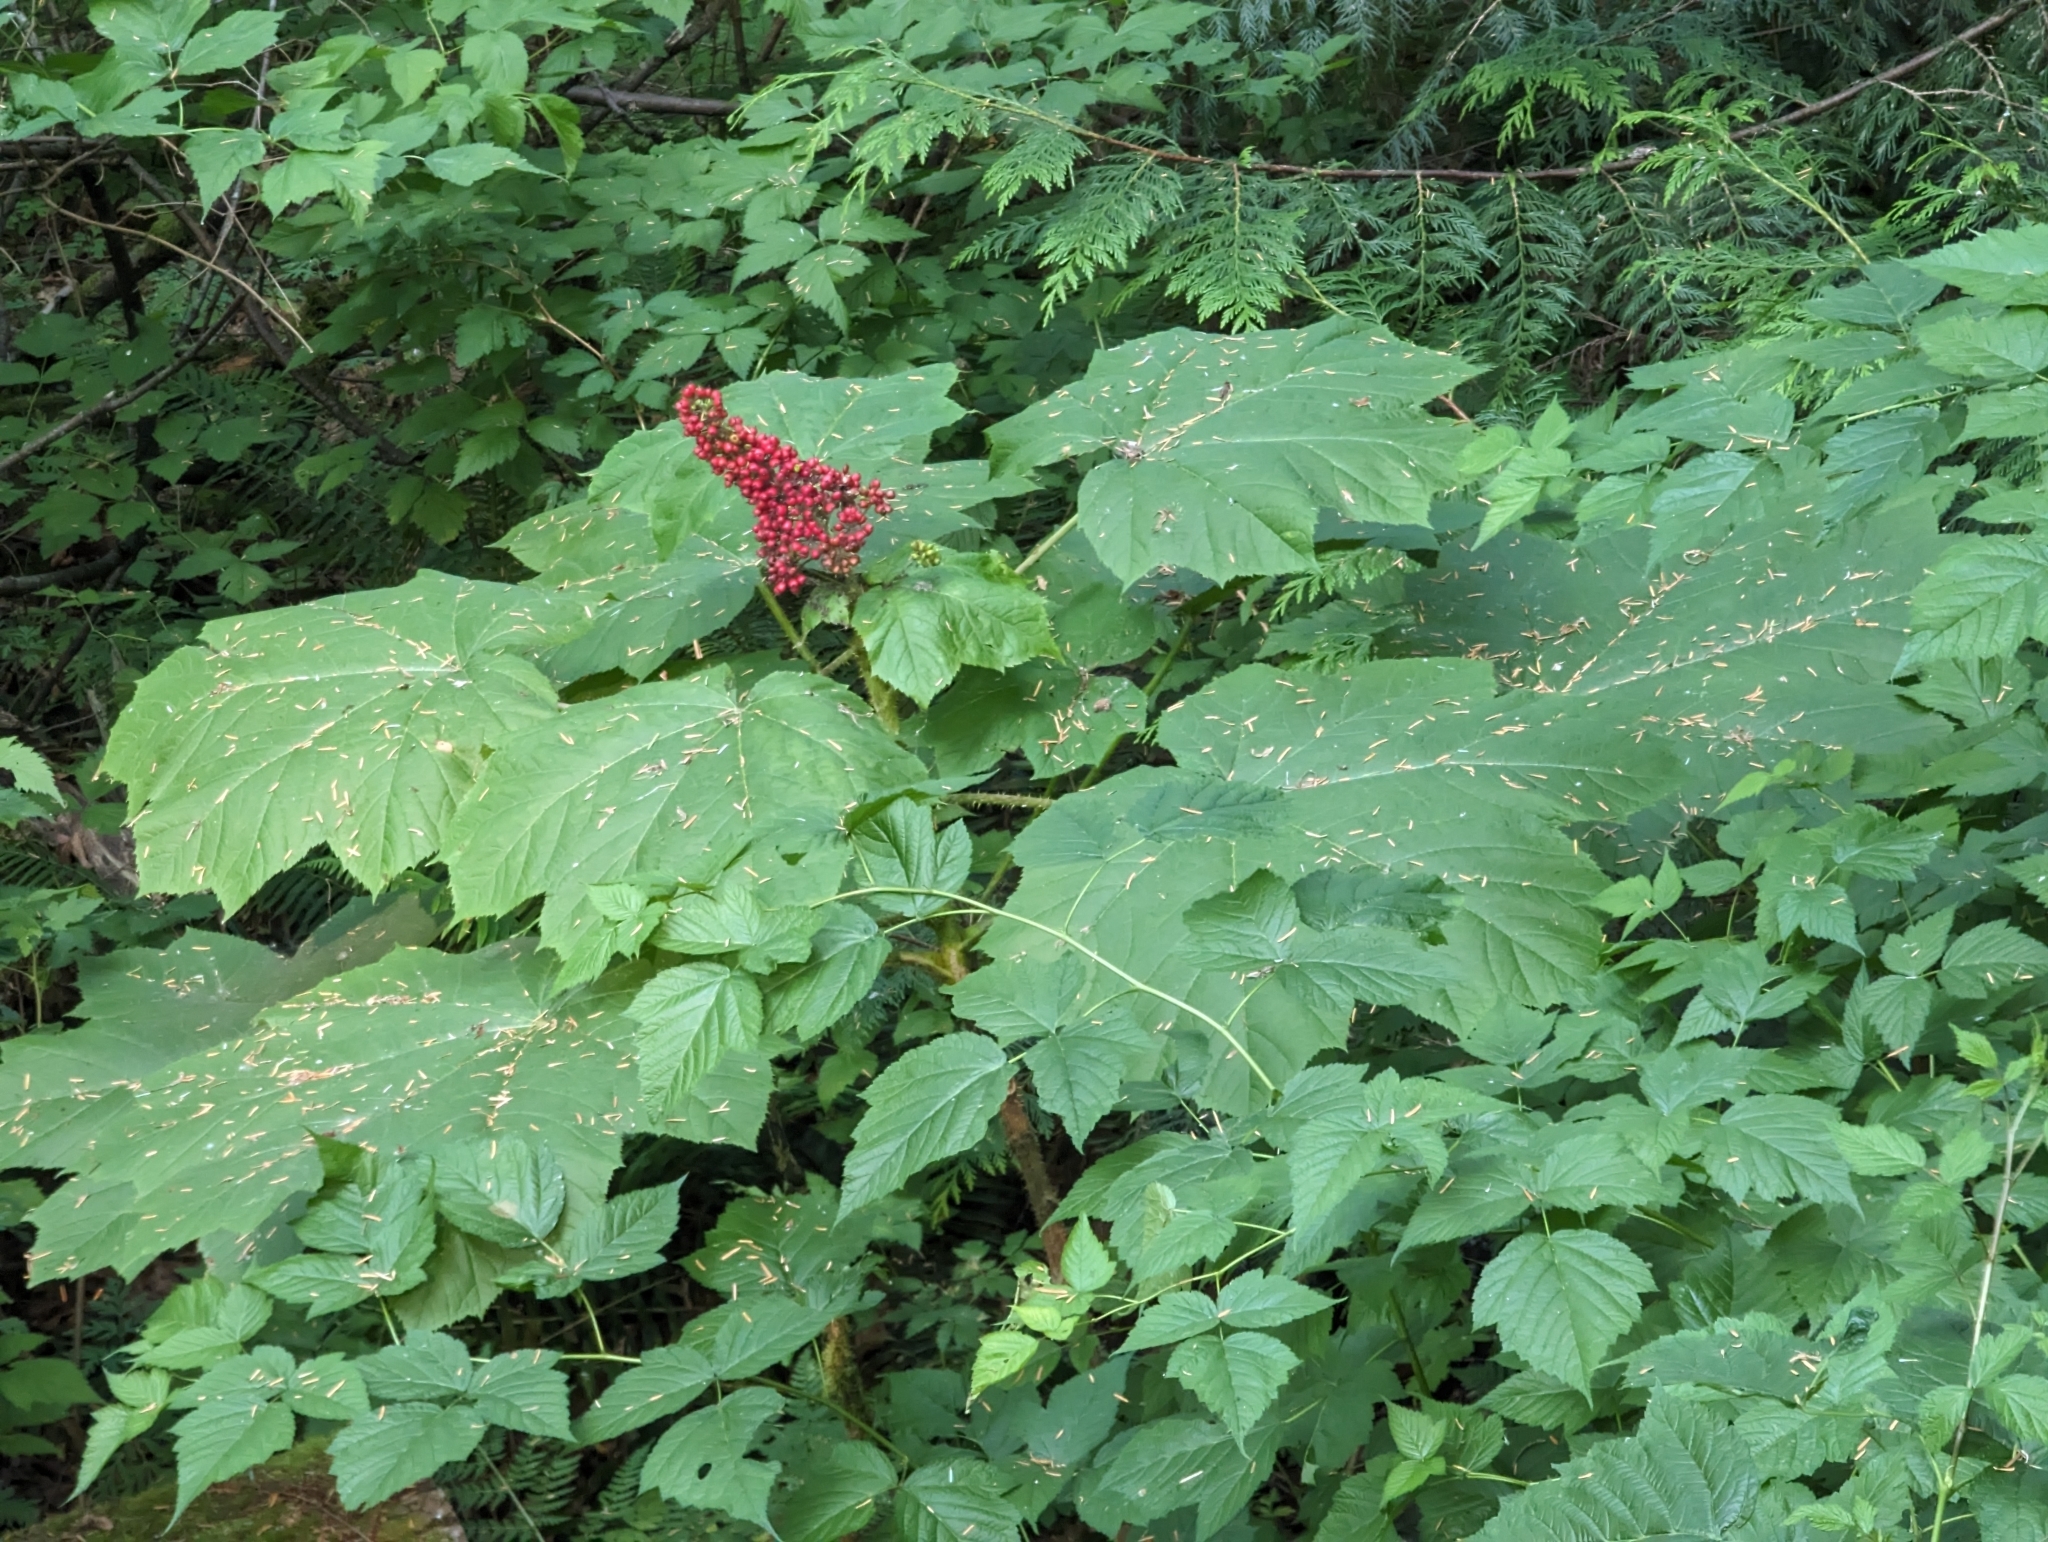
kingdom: Plantae
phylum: Tracheophyta
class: Magnoliopsida
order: Apiales
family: Araliaceae
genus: Oplopanax
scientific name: Oplopanax horridus
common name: Devil's walking-stick
